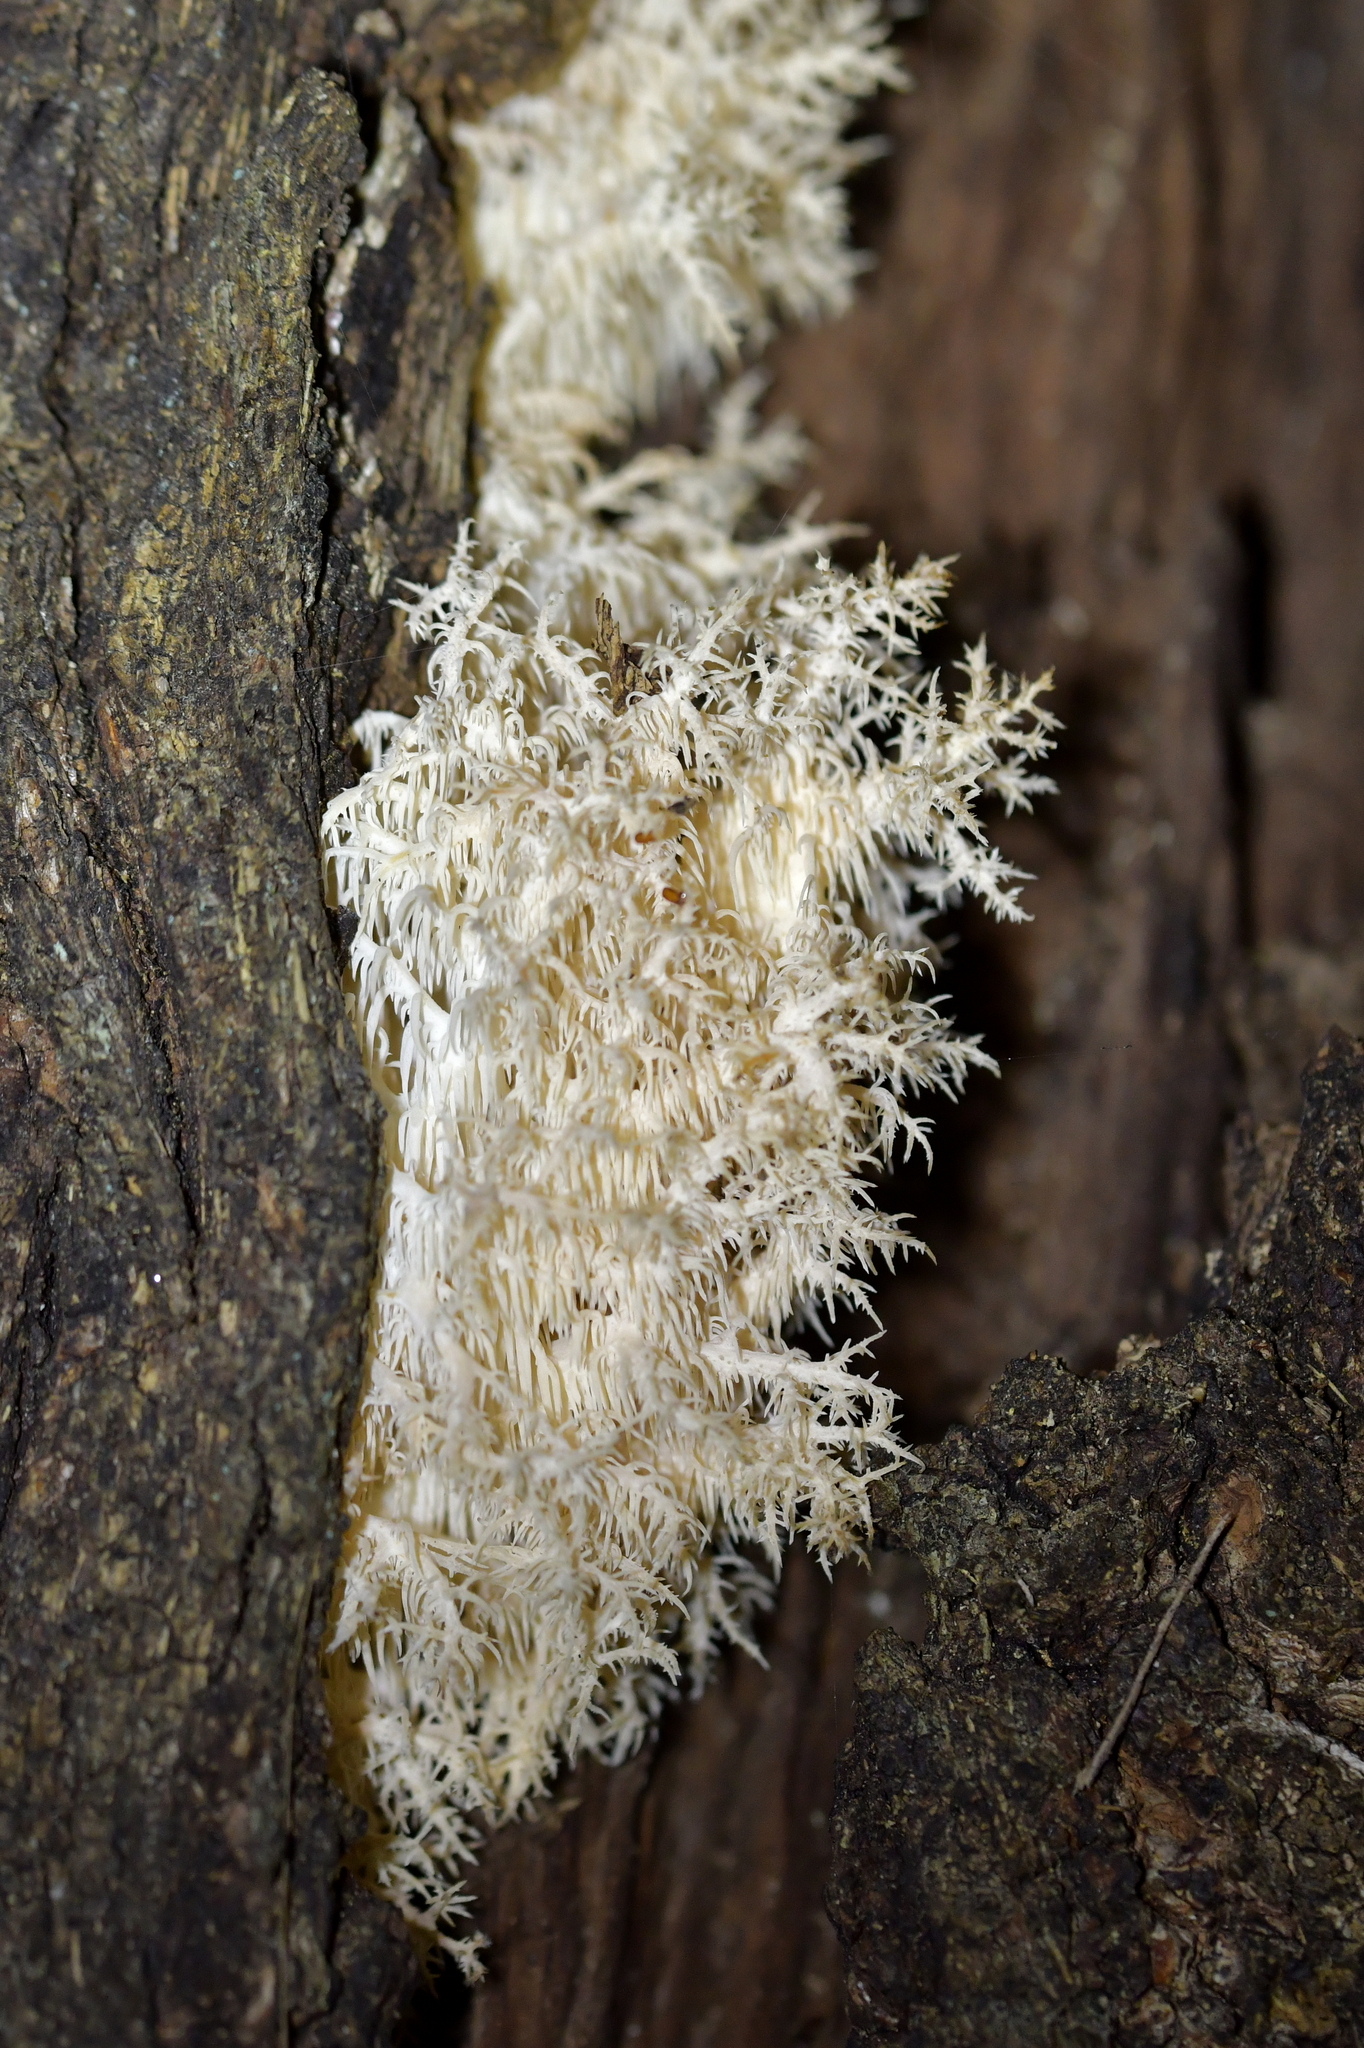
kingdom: Fungi
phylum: Basidiomycota
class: Agaricomycetes
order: Russulales
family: Hericiaceae
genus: Hericium
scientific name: Hericium novae-zealandiae
